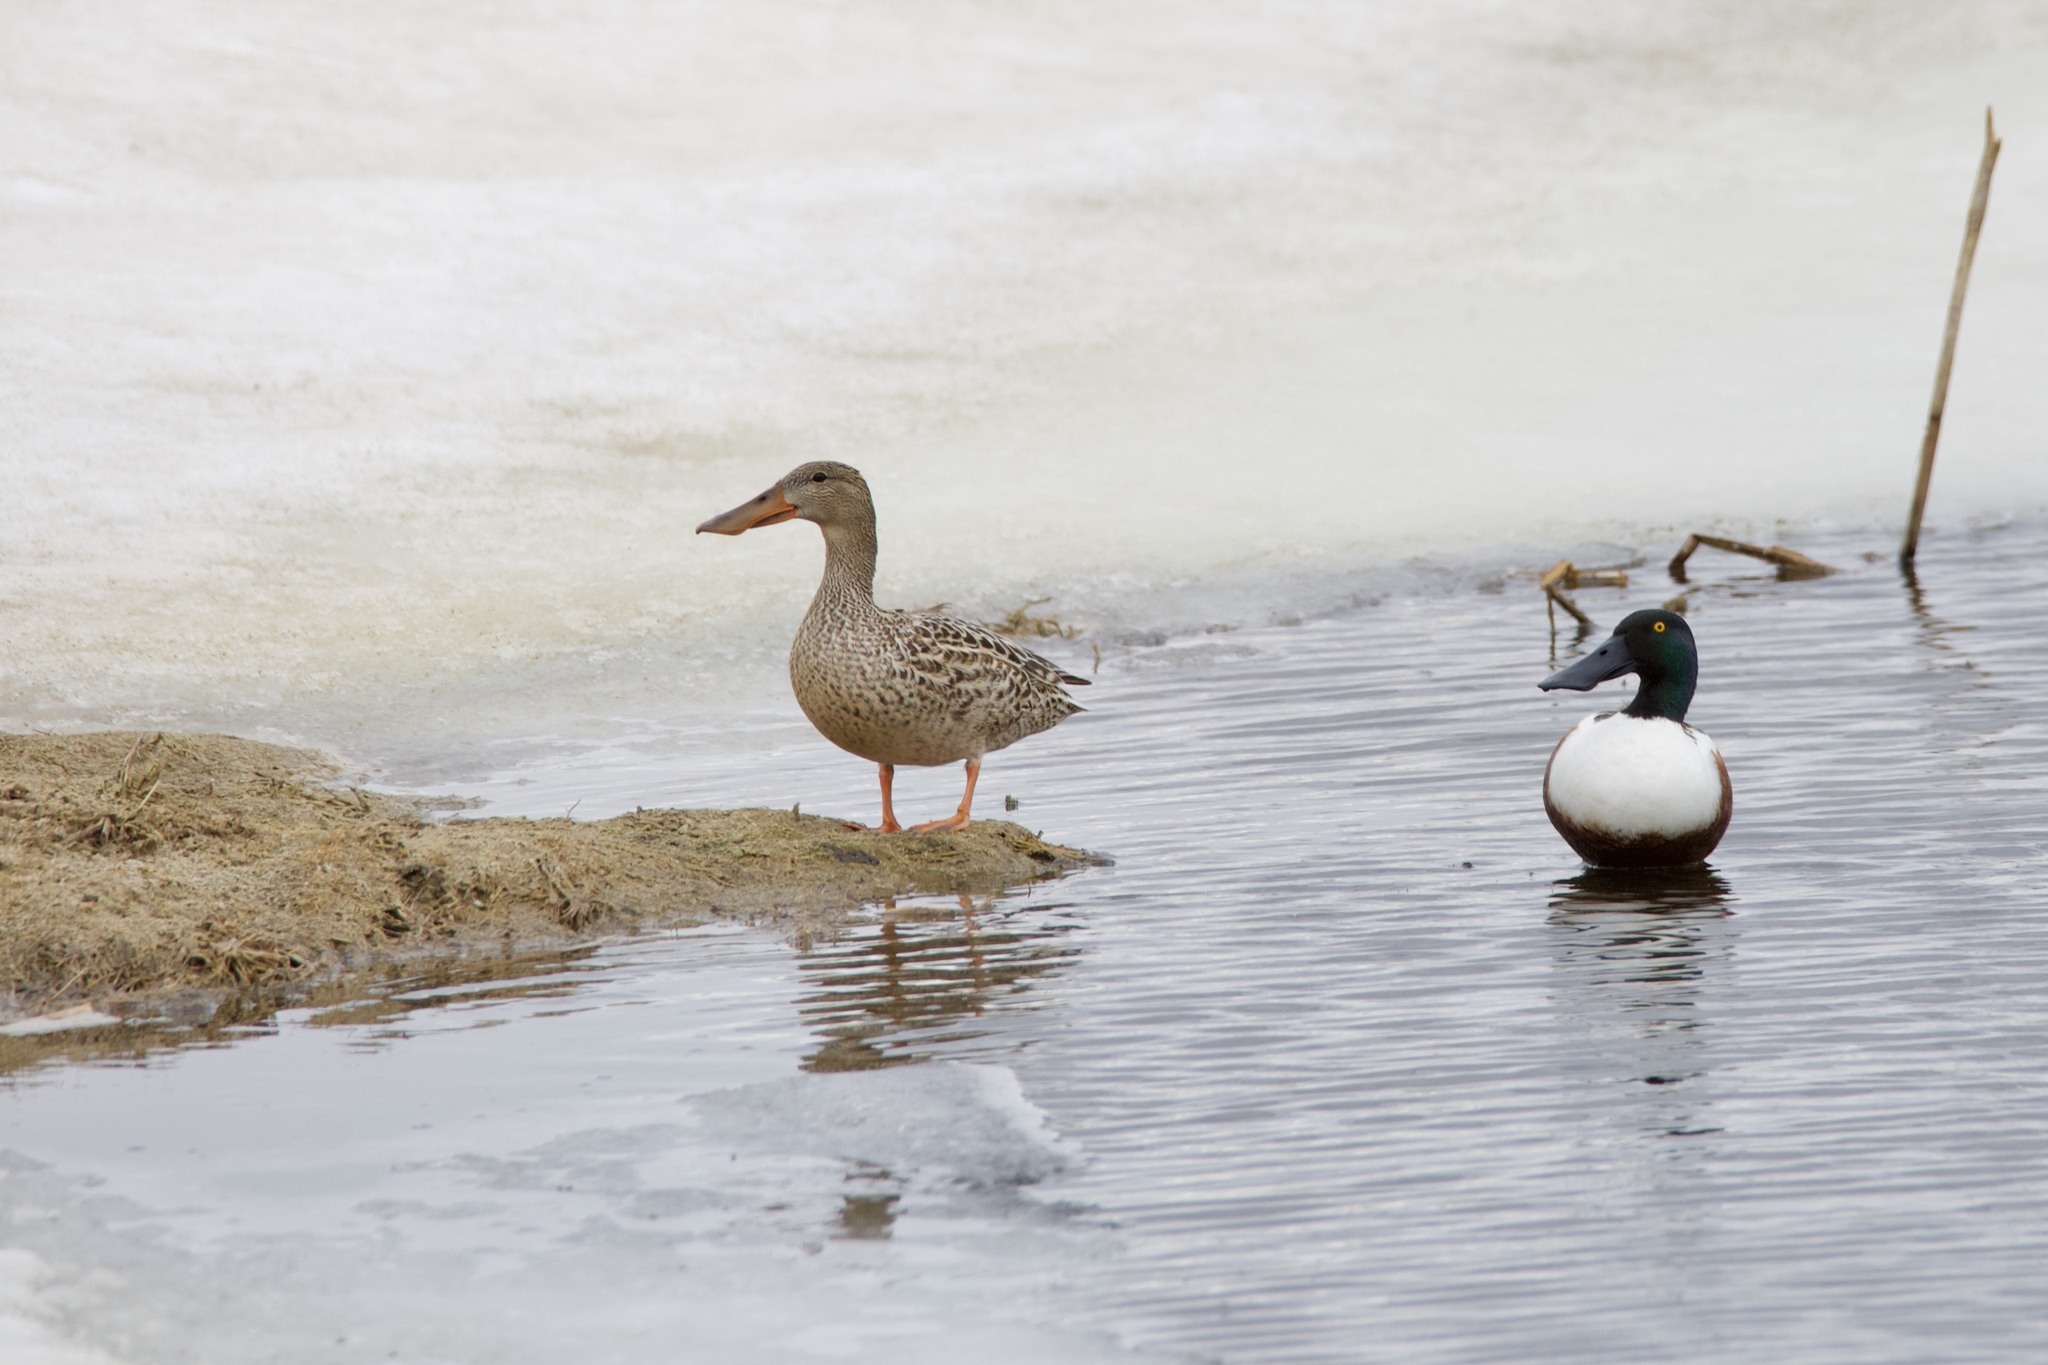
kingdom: Animalia
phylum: Chordata
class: Aves
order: Anseriformes
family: Anatidae
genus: Spatula
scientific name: Spatula clypeata
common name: Northern shoveler
